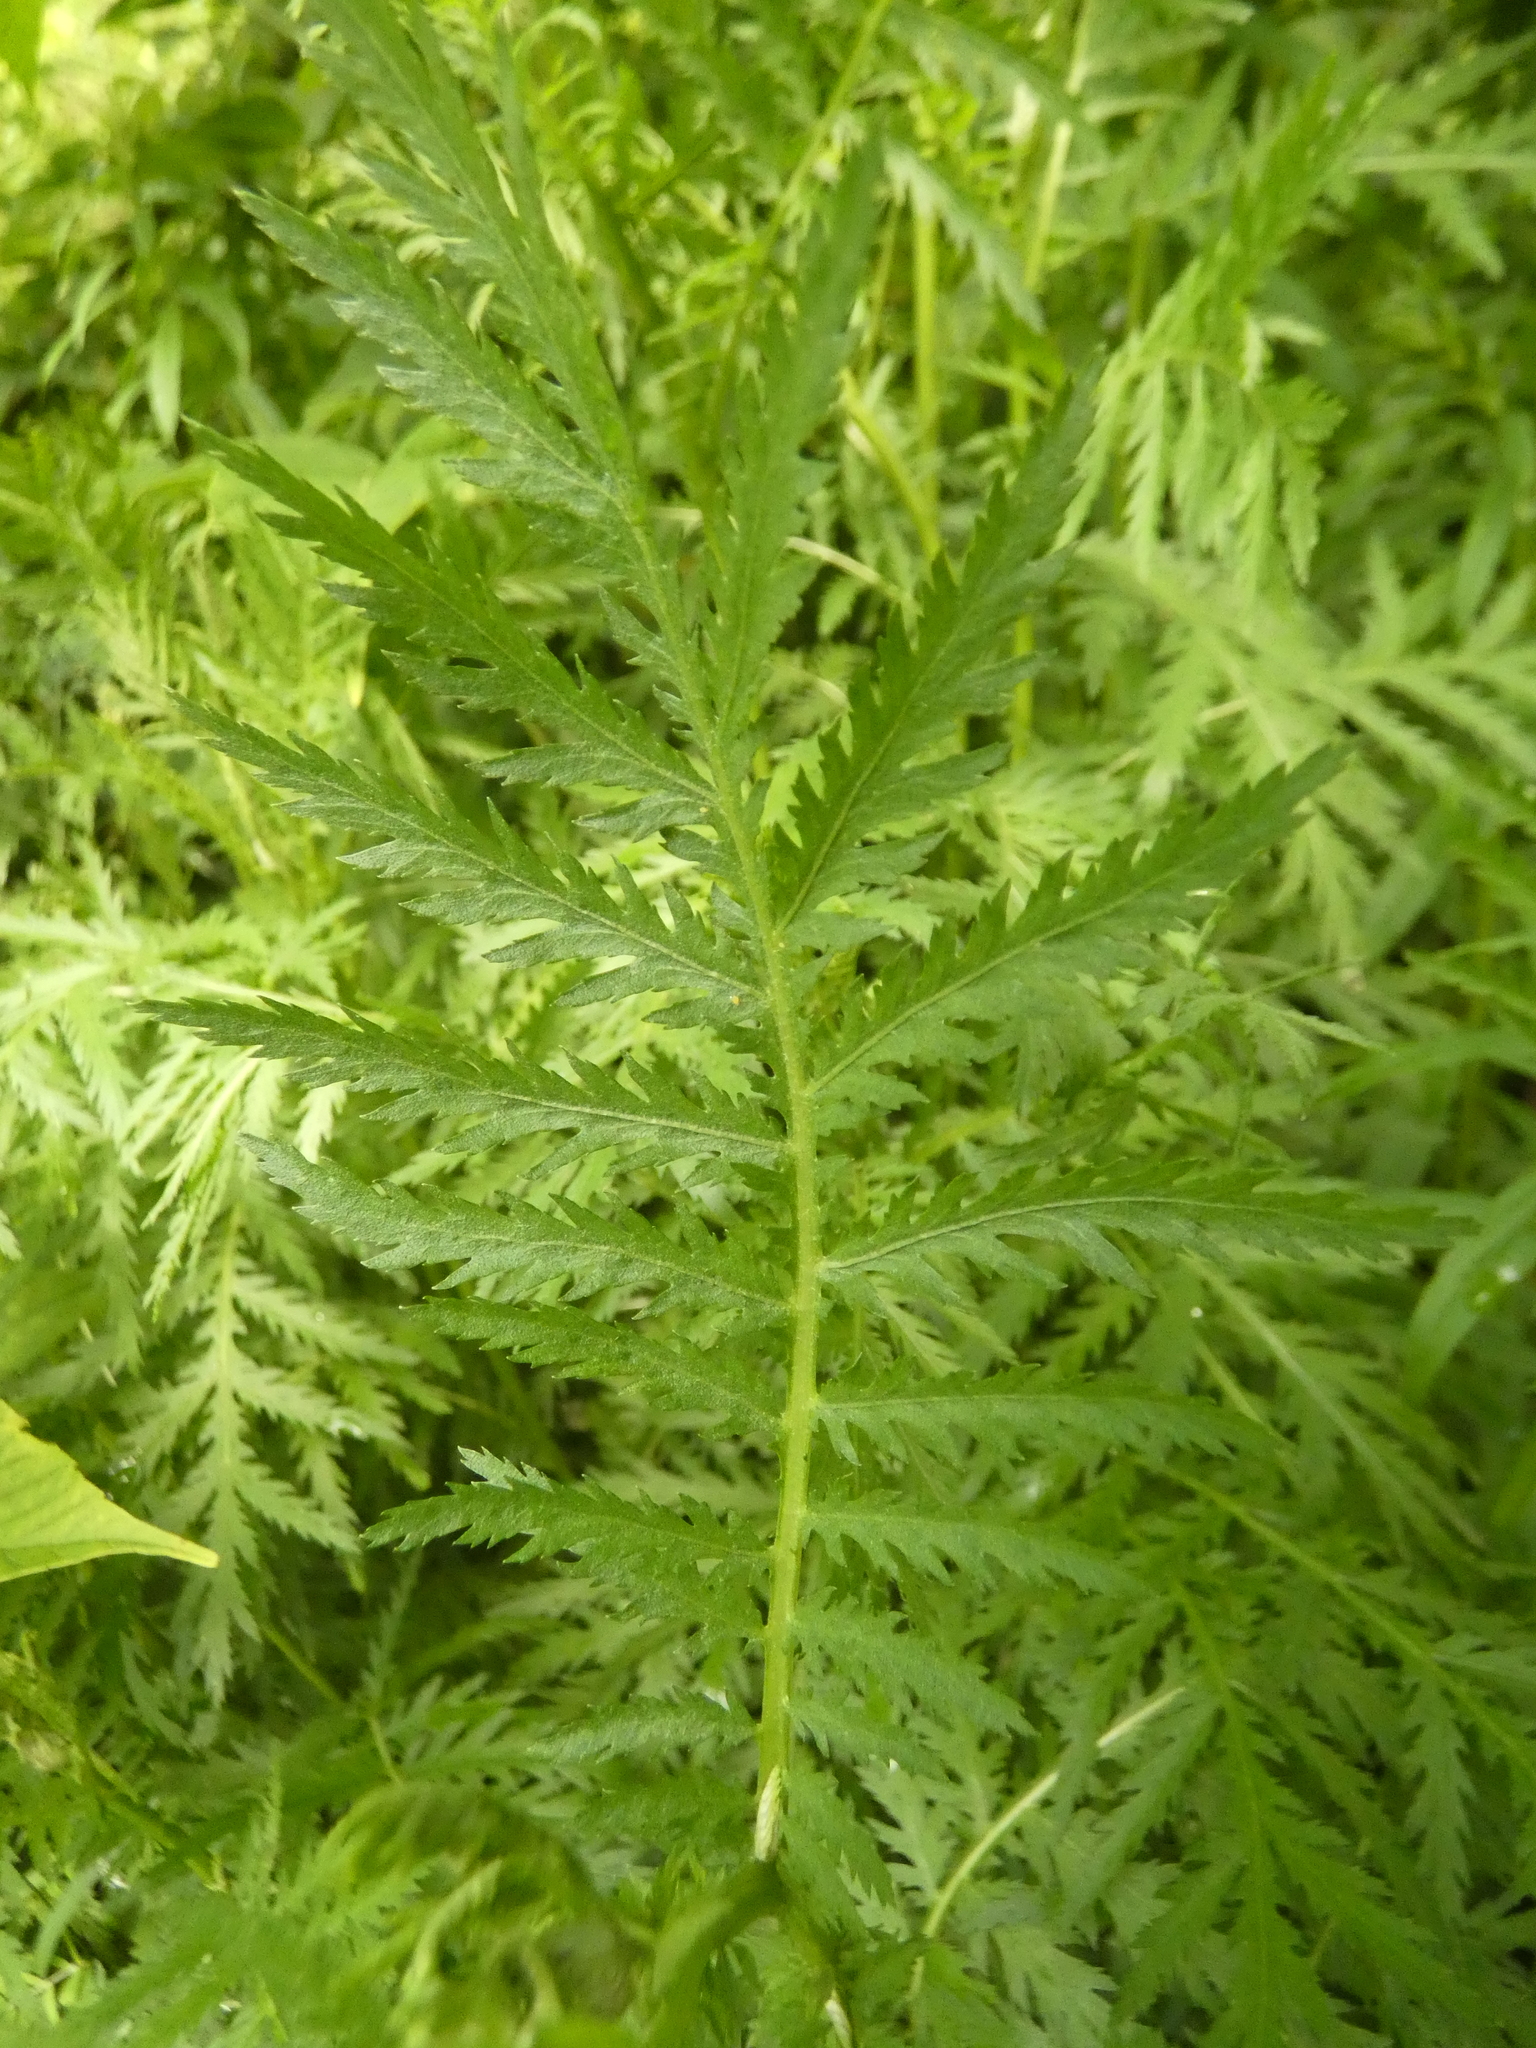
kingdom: Plantae
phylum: Tracheophyta
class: Magnoliopsida
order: Asterales
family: Asteraceae
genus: Tanacetum
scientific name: Tanacetum vulgare
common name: Common tansy
